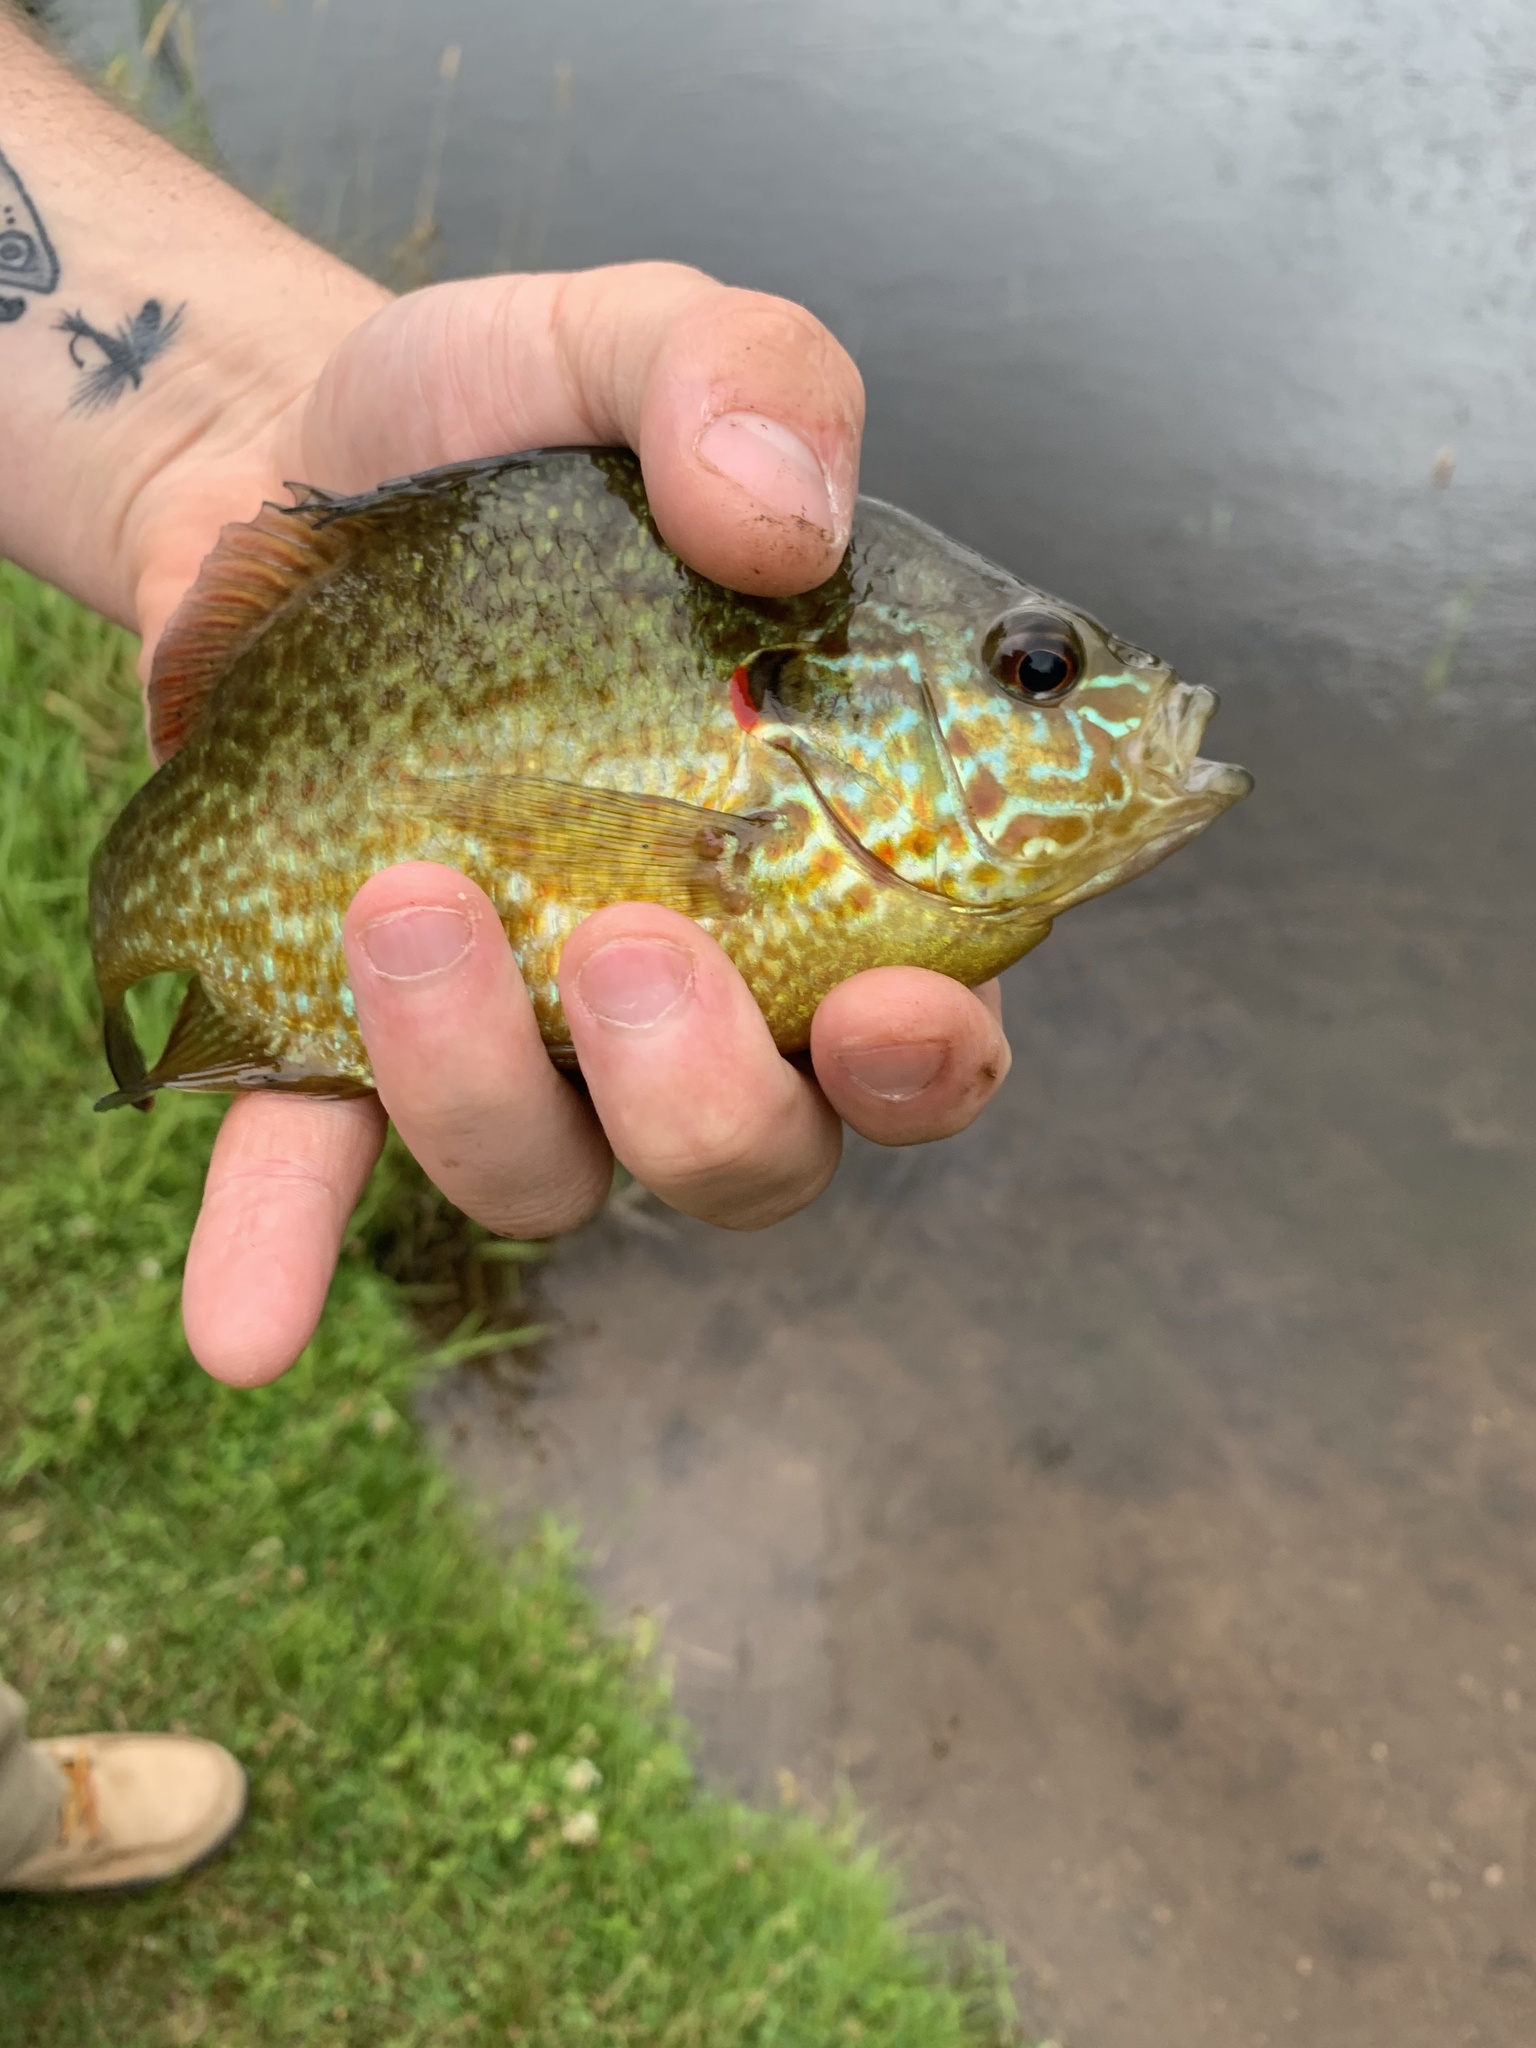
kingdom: Animalia
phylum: Chordata
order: Perciformes
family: Centrarchidae
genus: Lepomis
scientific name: Lepomis gibbosus
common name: Pumpkinseed
